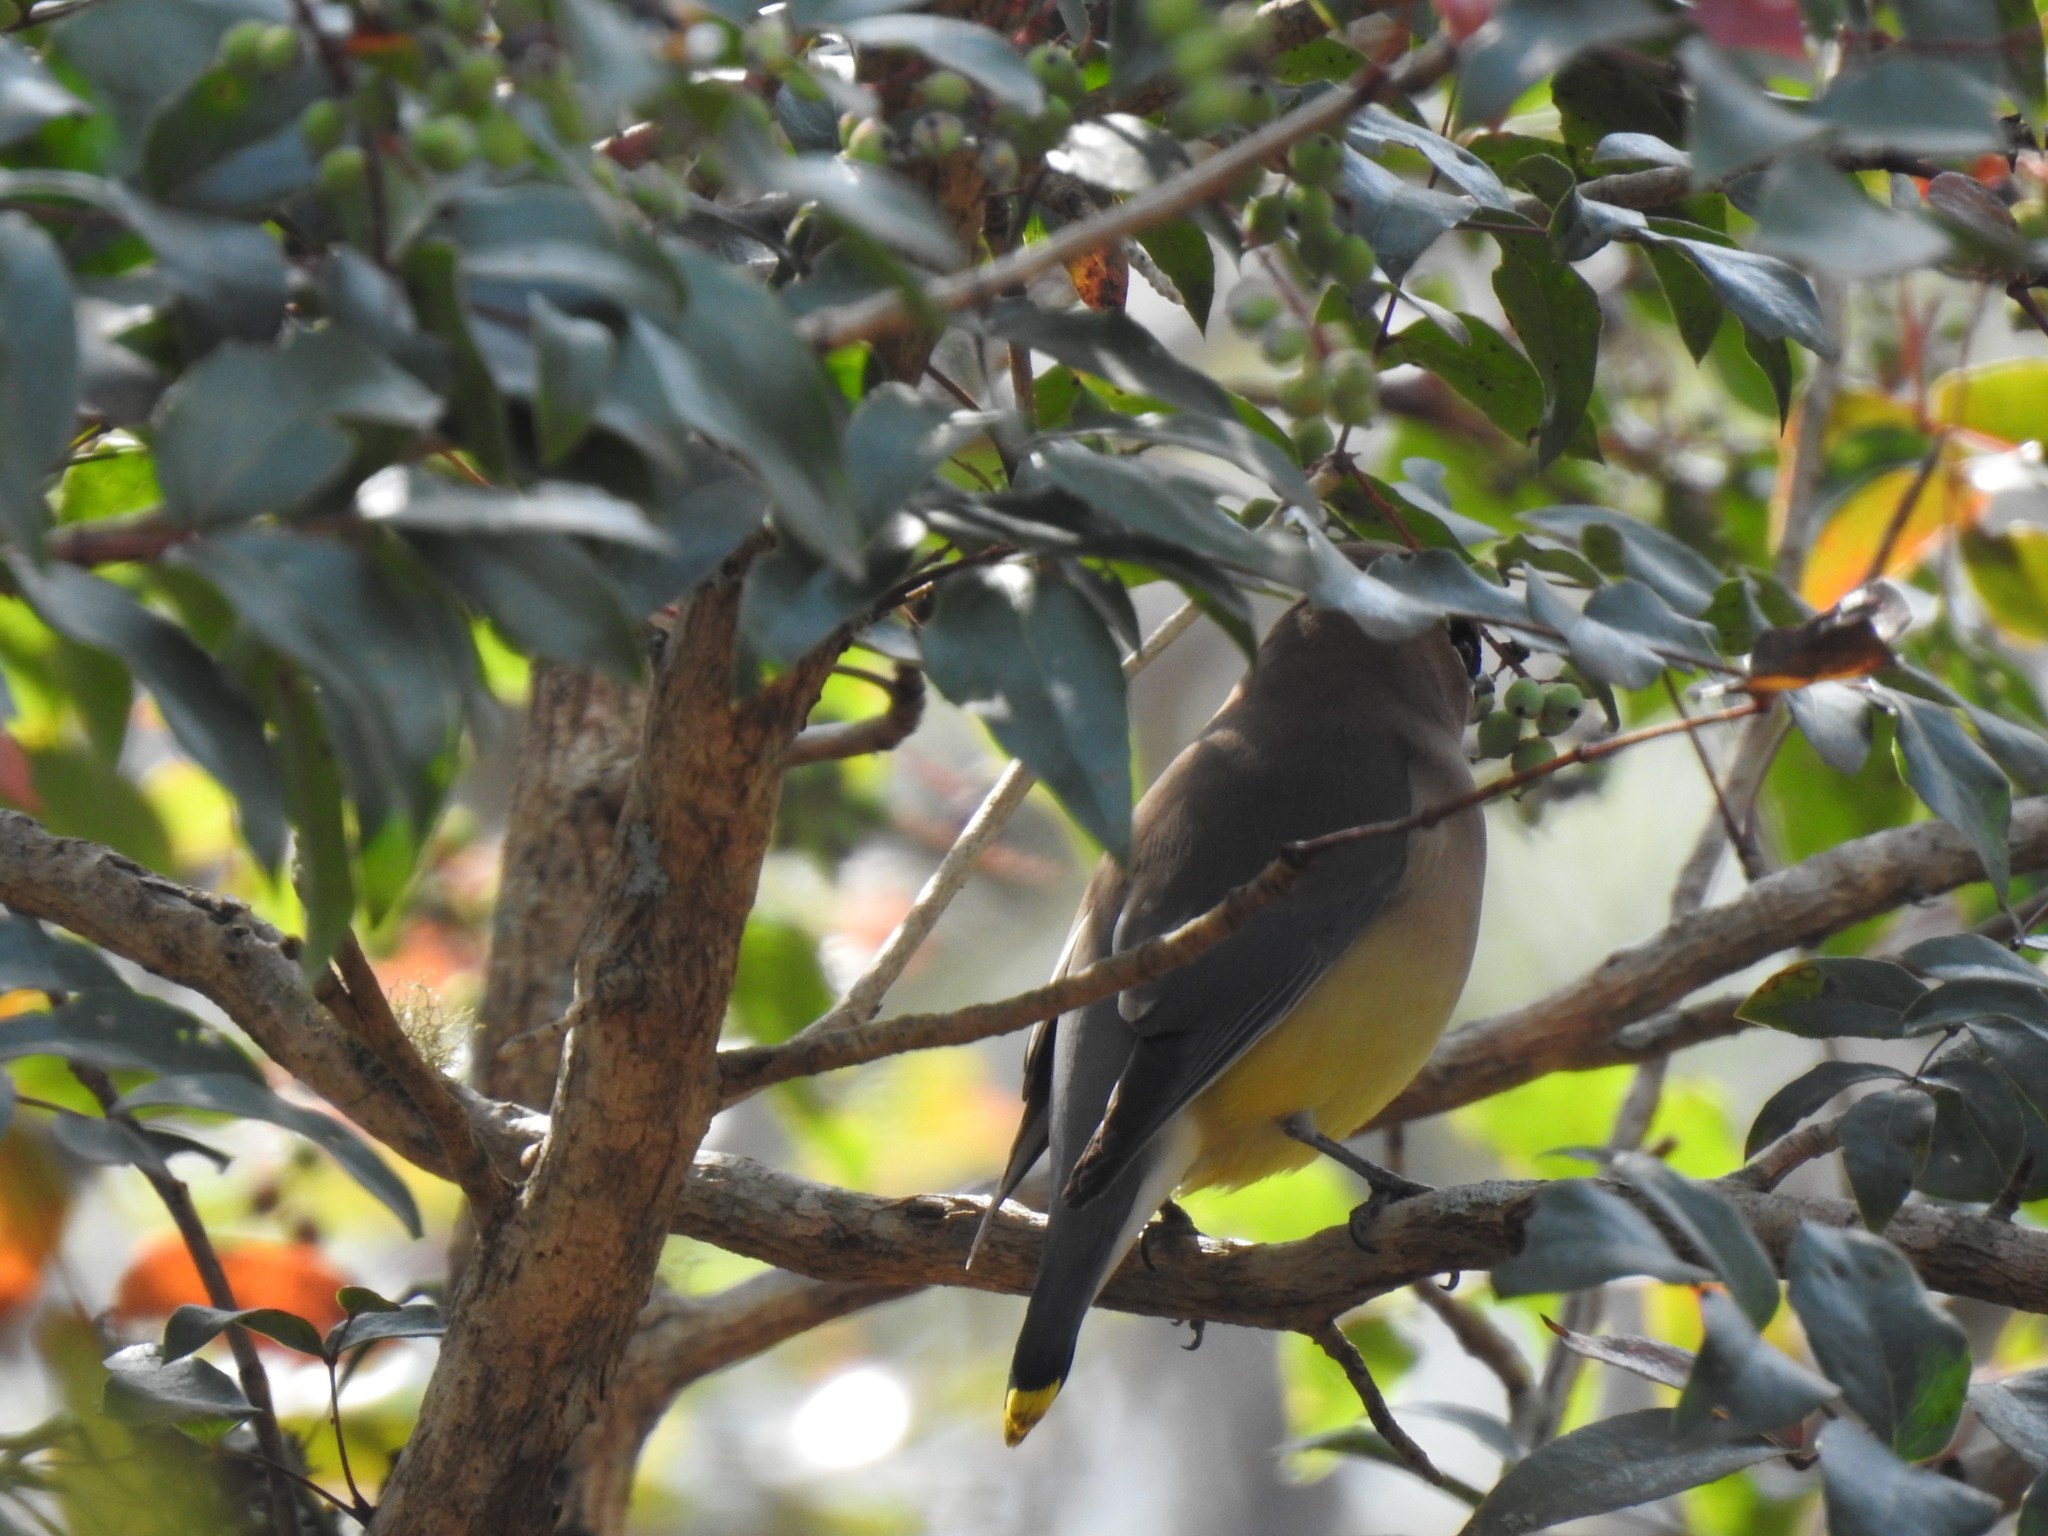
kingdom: Animalia
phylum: Chordata
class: Aves
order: Passeriformes
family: Bombycillidae
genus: Bombycilla
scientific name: Bombycilla cedrorum
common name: Cedar waxwing
